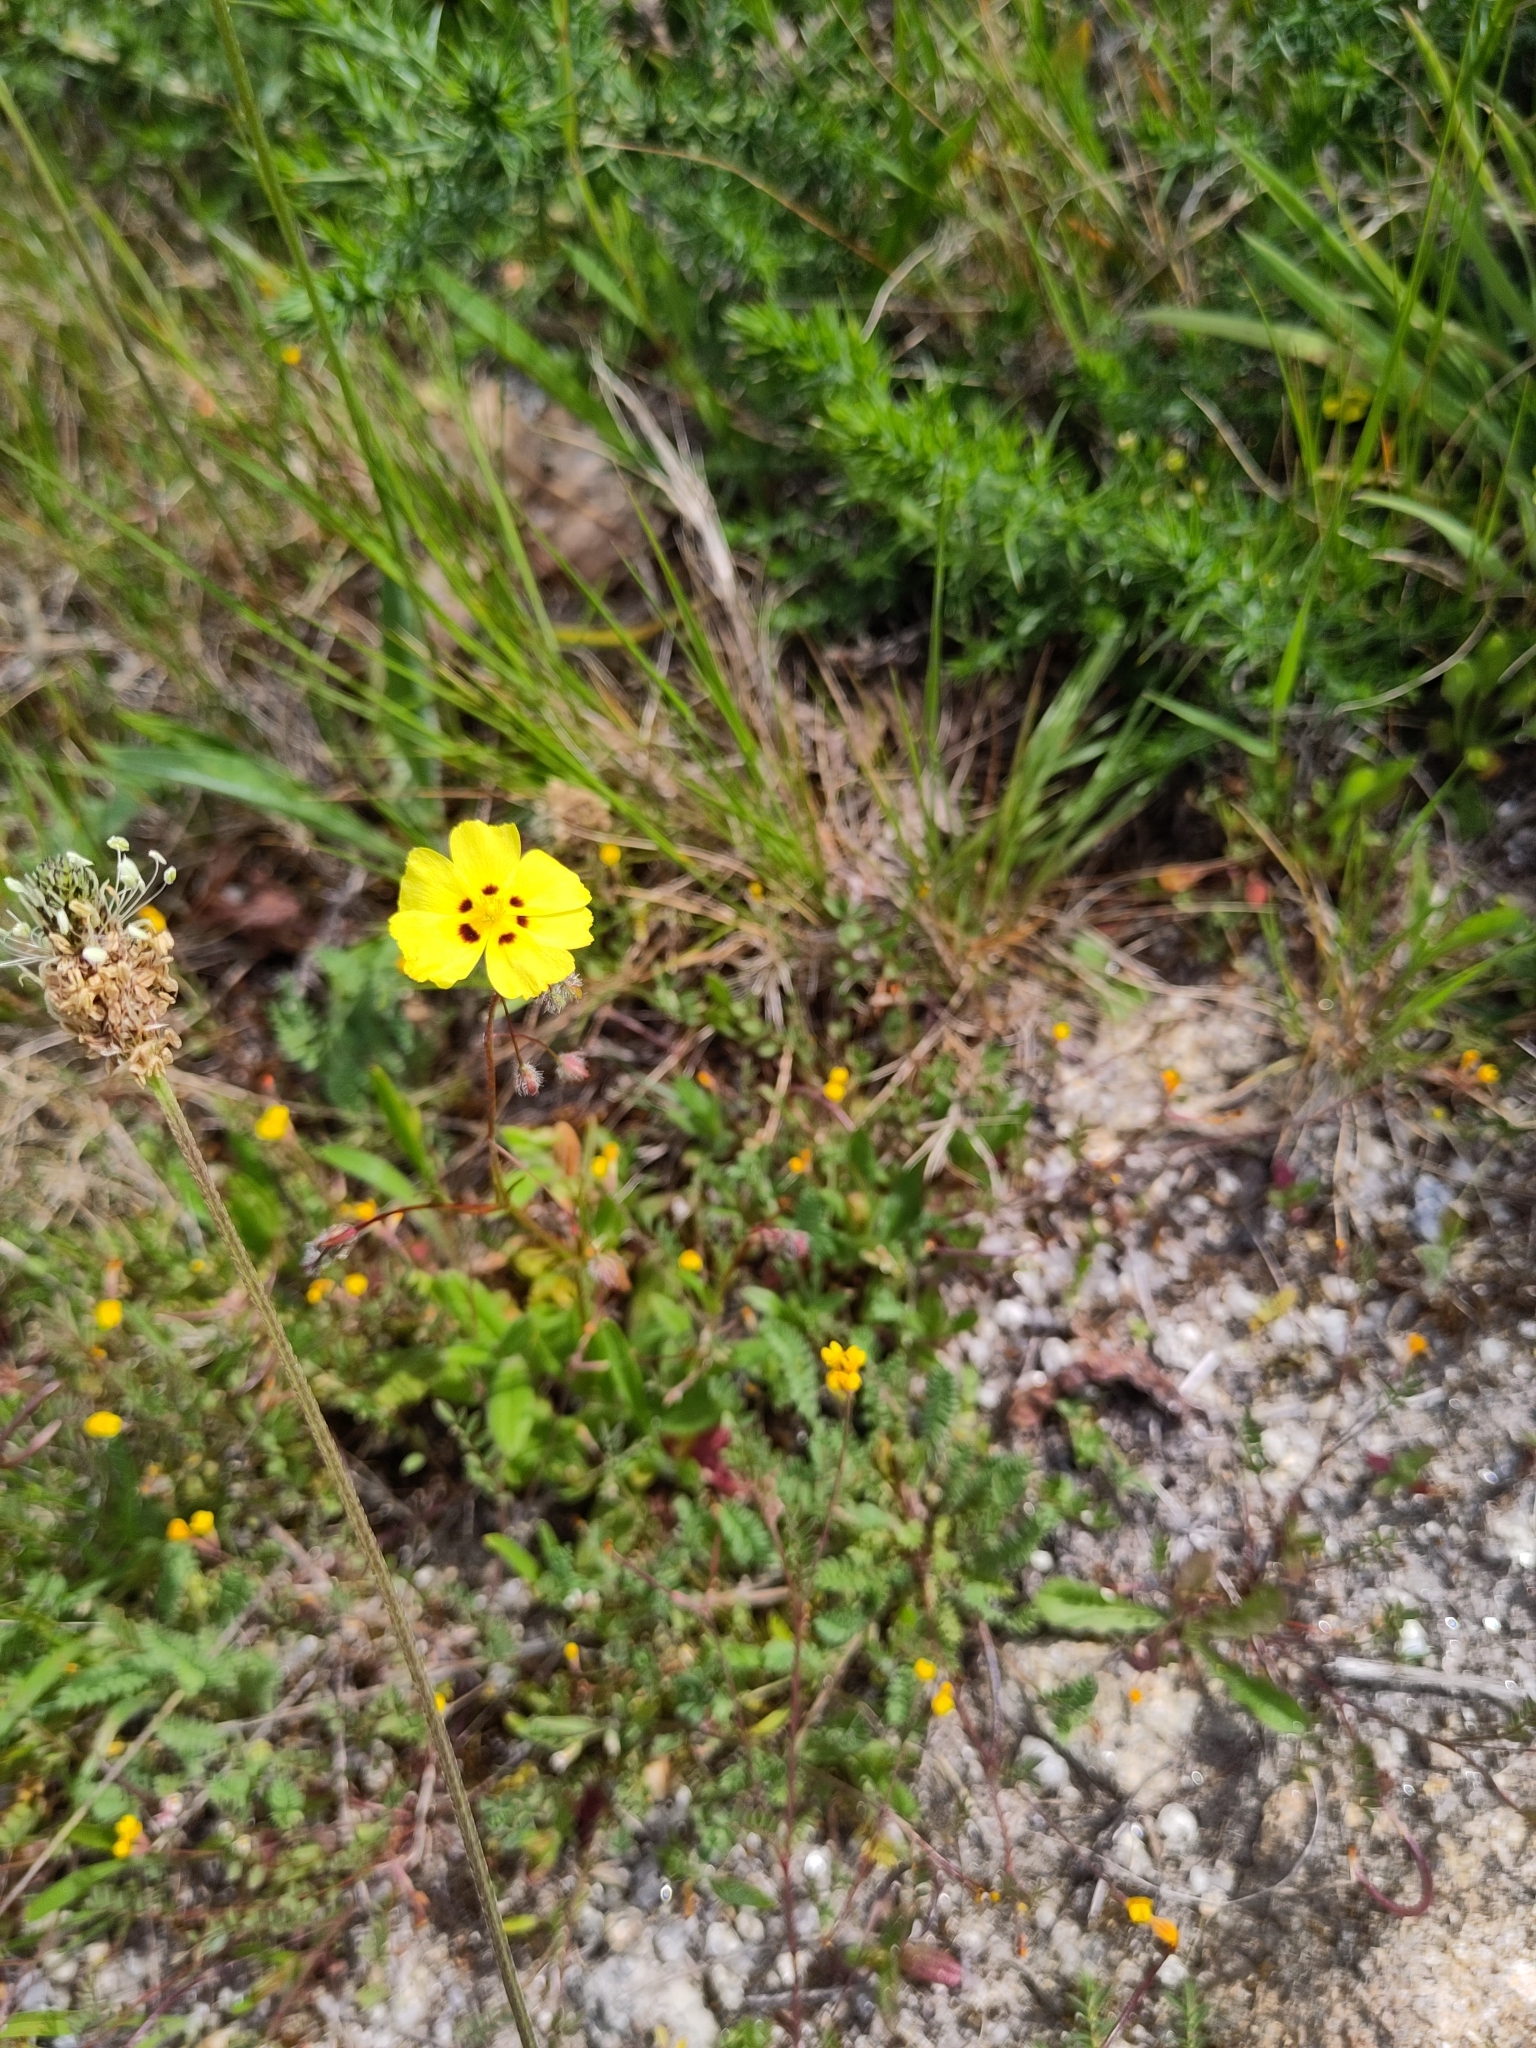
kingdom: Plantae
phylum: Tracheophyta
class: Magnoliopsida
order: Malvales
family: Cistaceae
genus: Tuberaria
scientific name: Tuberaria guttata
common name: Spotted rock-rose
